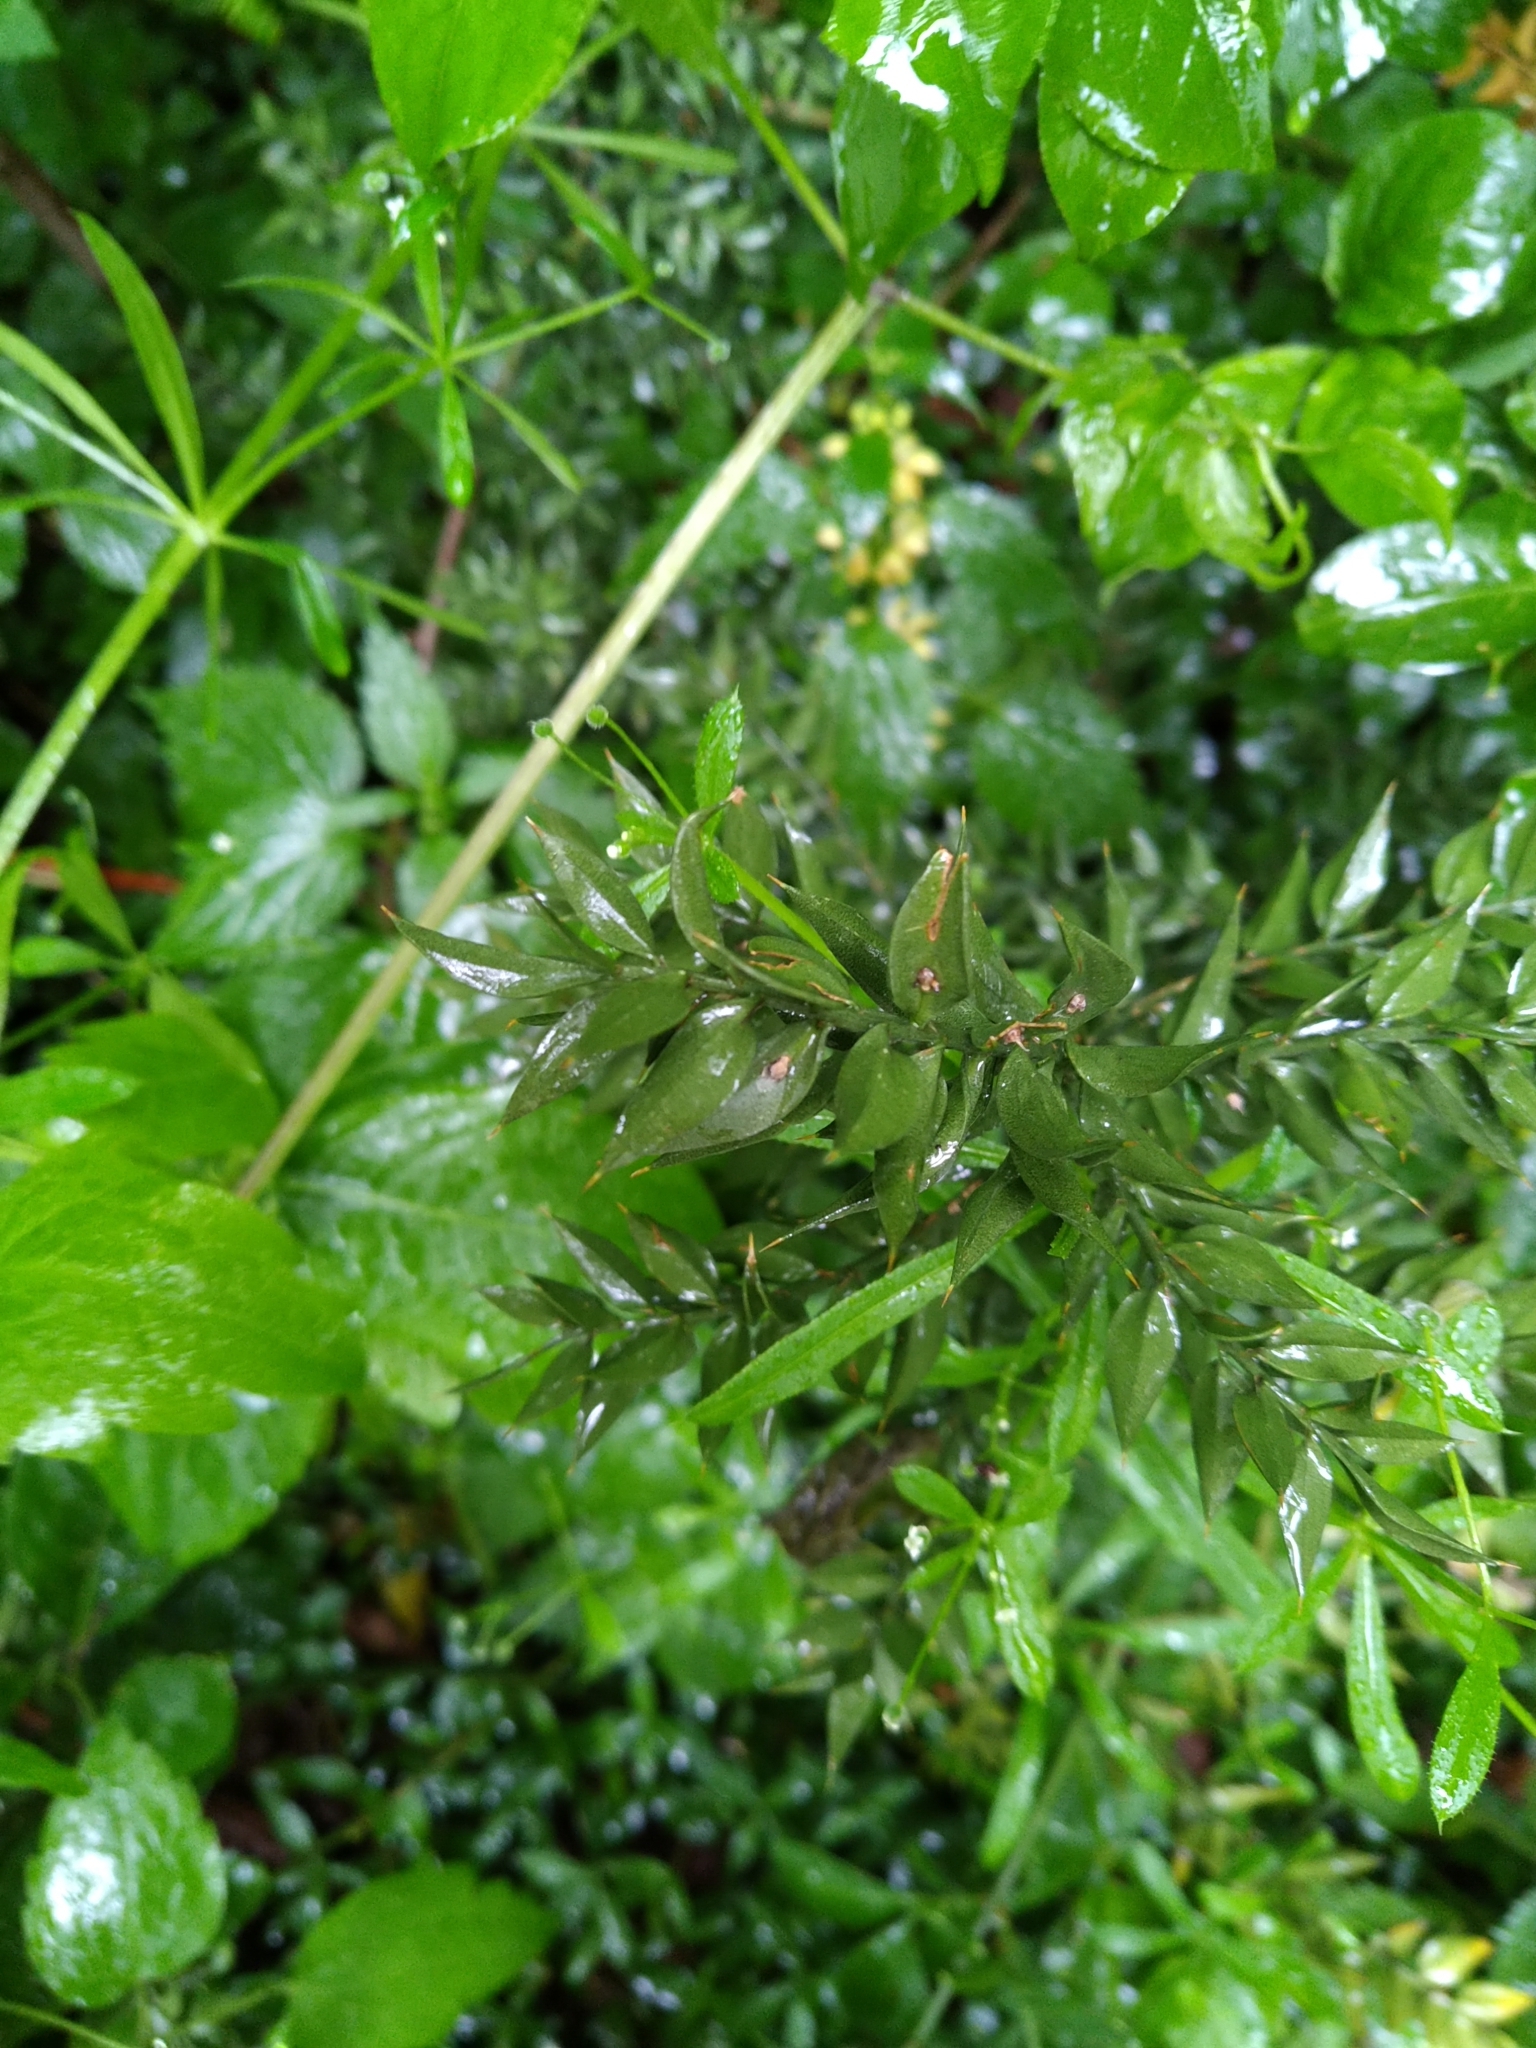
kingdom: Plantae
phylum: Tracheophyta
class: Liliopsida
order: Asparagales
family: Asparagaceae
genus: Ruscus
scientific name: Ruscus aculeatus
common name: Butcher's-broom
